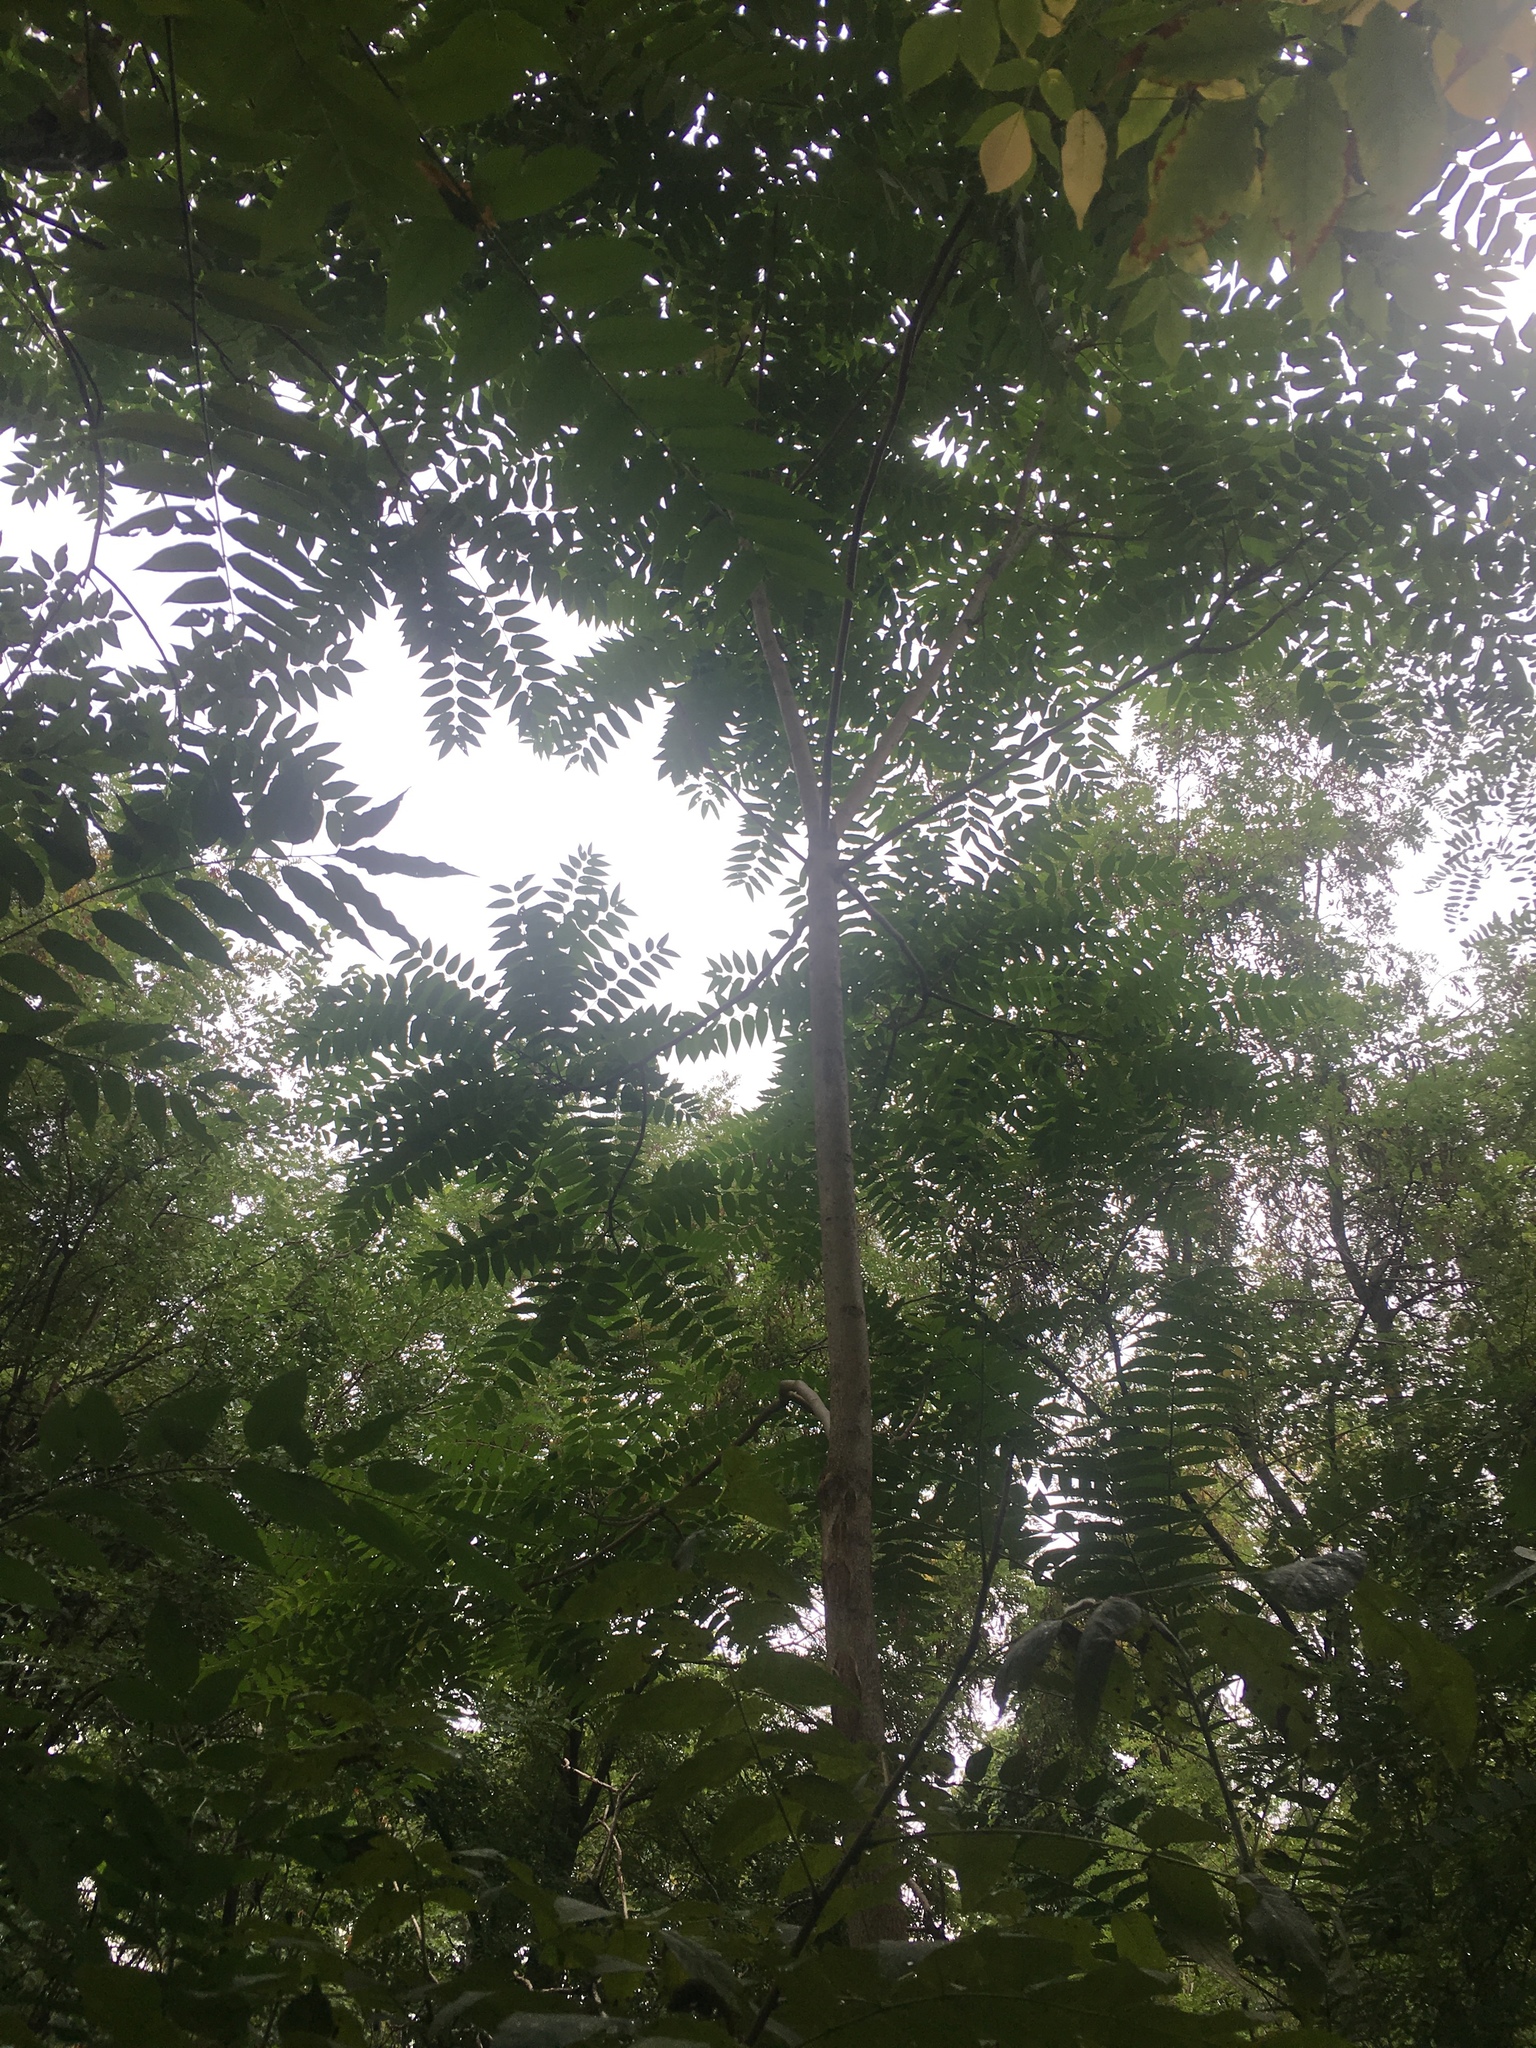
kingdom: Plantae
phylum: Tracheophyta
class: Magnoliopsida
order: Sapindales
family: Simaroubaceae
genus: Ailanthus
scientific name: Ailanthus altissima
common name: Tree-of-heaven
